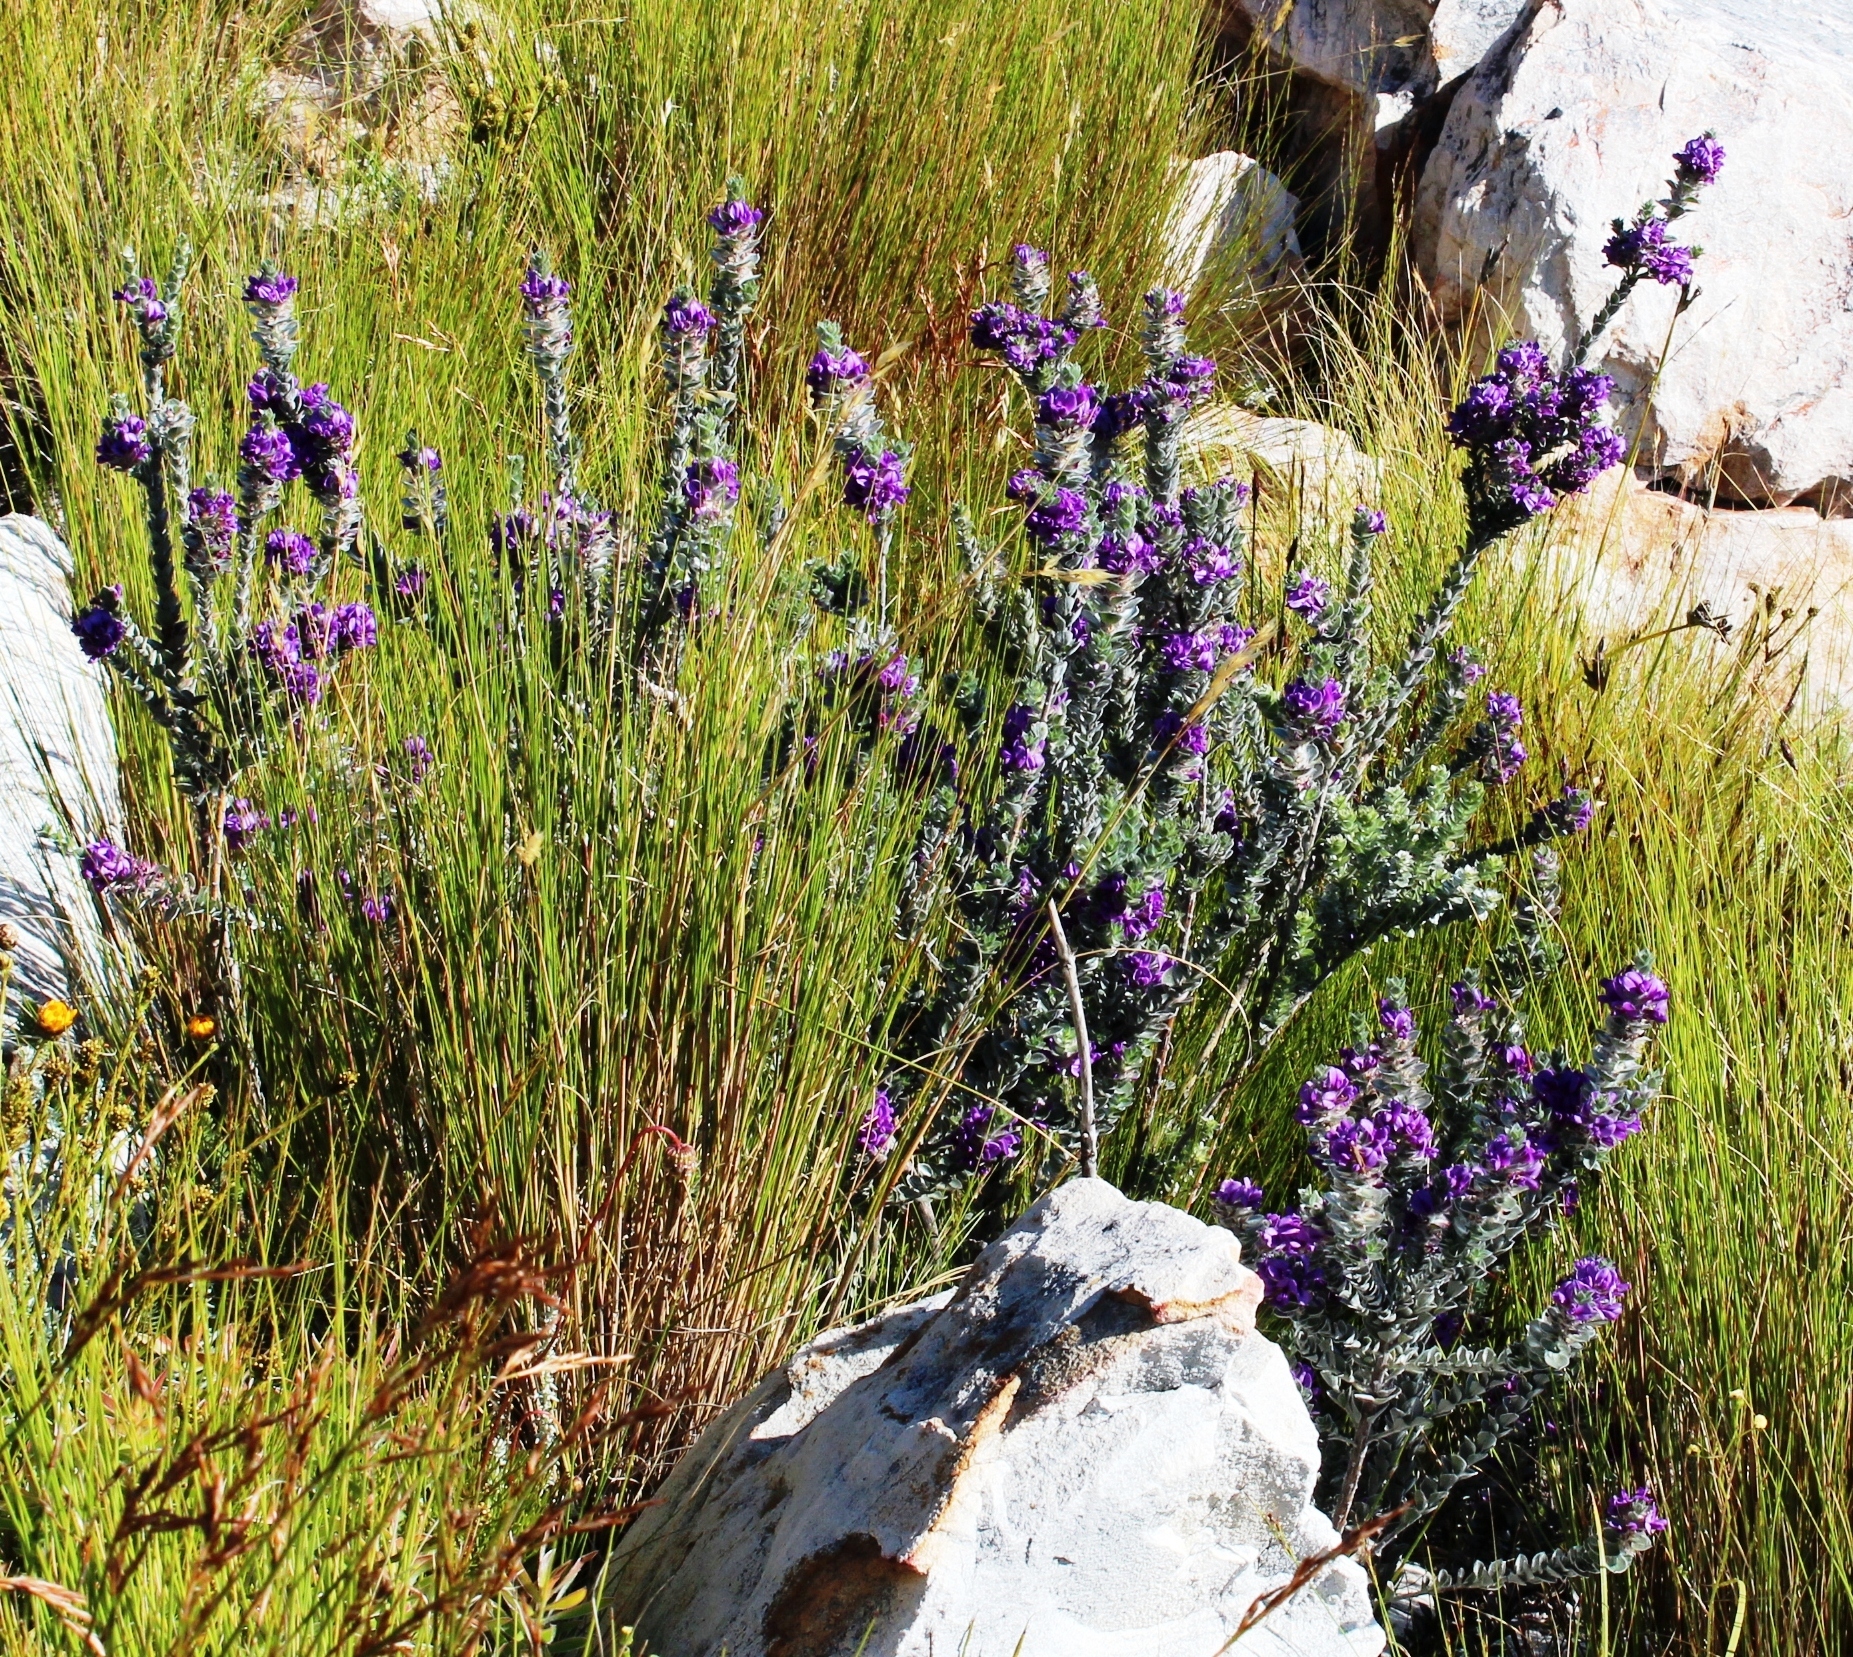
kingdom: Plantae
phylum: Tracheophyta
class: Magnoliopsida
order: Fabales
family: Fabaceae
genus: Amphithalea
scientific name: Amphithalea imbricata
